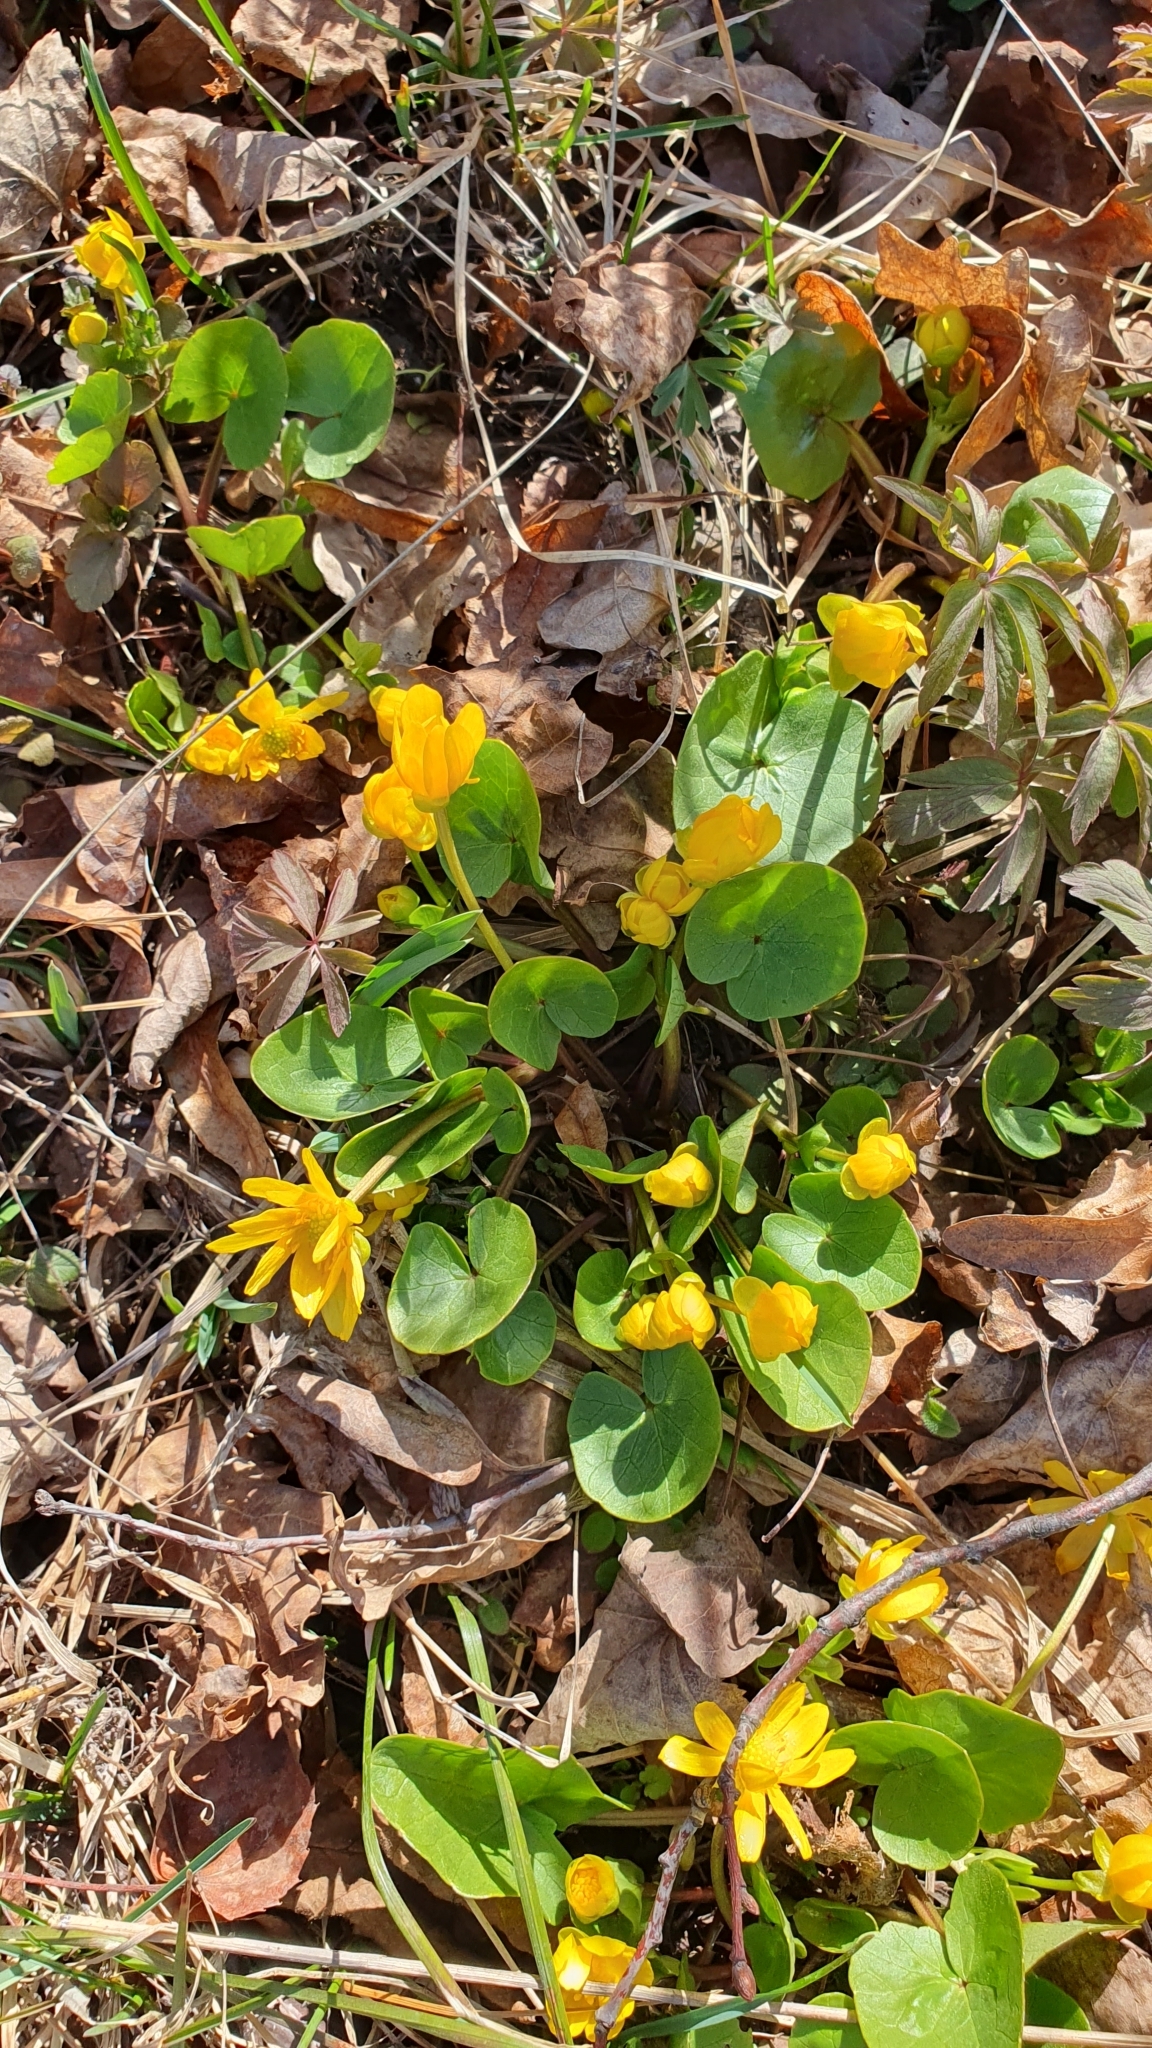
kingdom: Plantae
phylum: Tracheophyta
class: Magnoliopsida
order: Ranunculales
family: Ranunculaceae
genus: Ficaria
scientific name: Ficaria verna
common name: Lesser celandine
